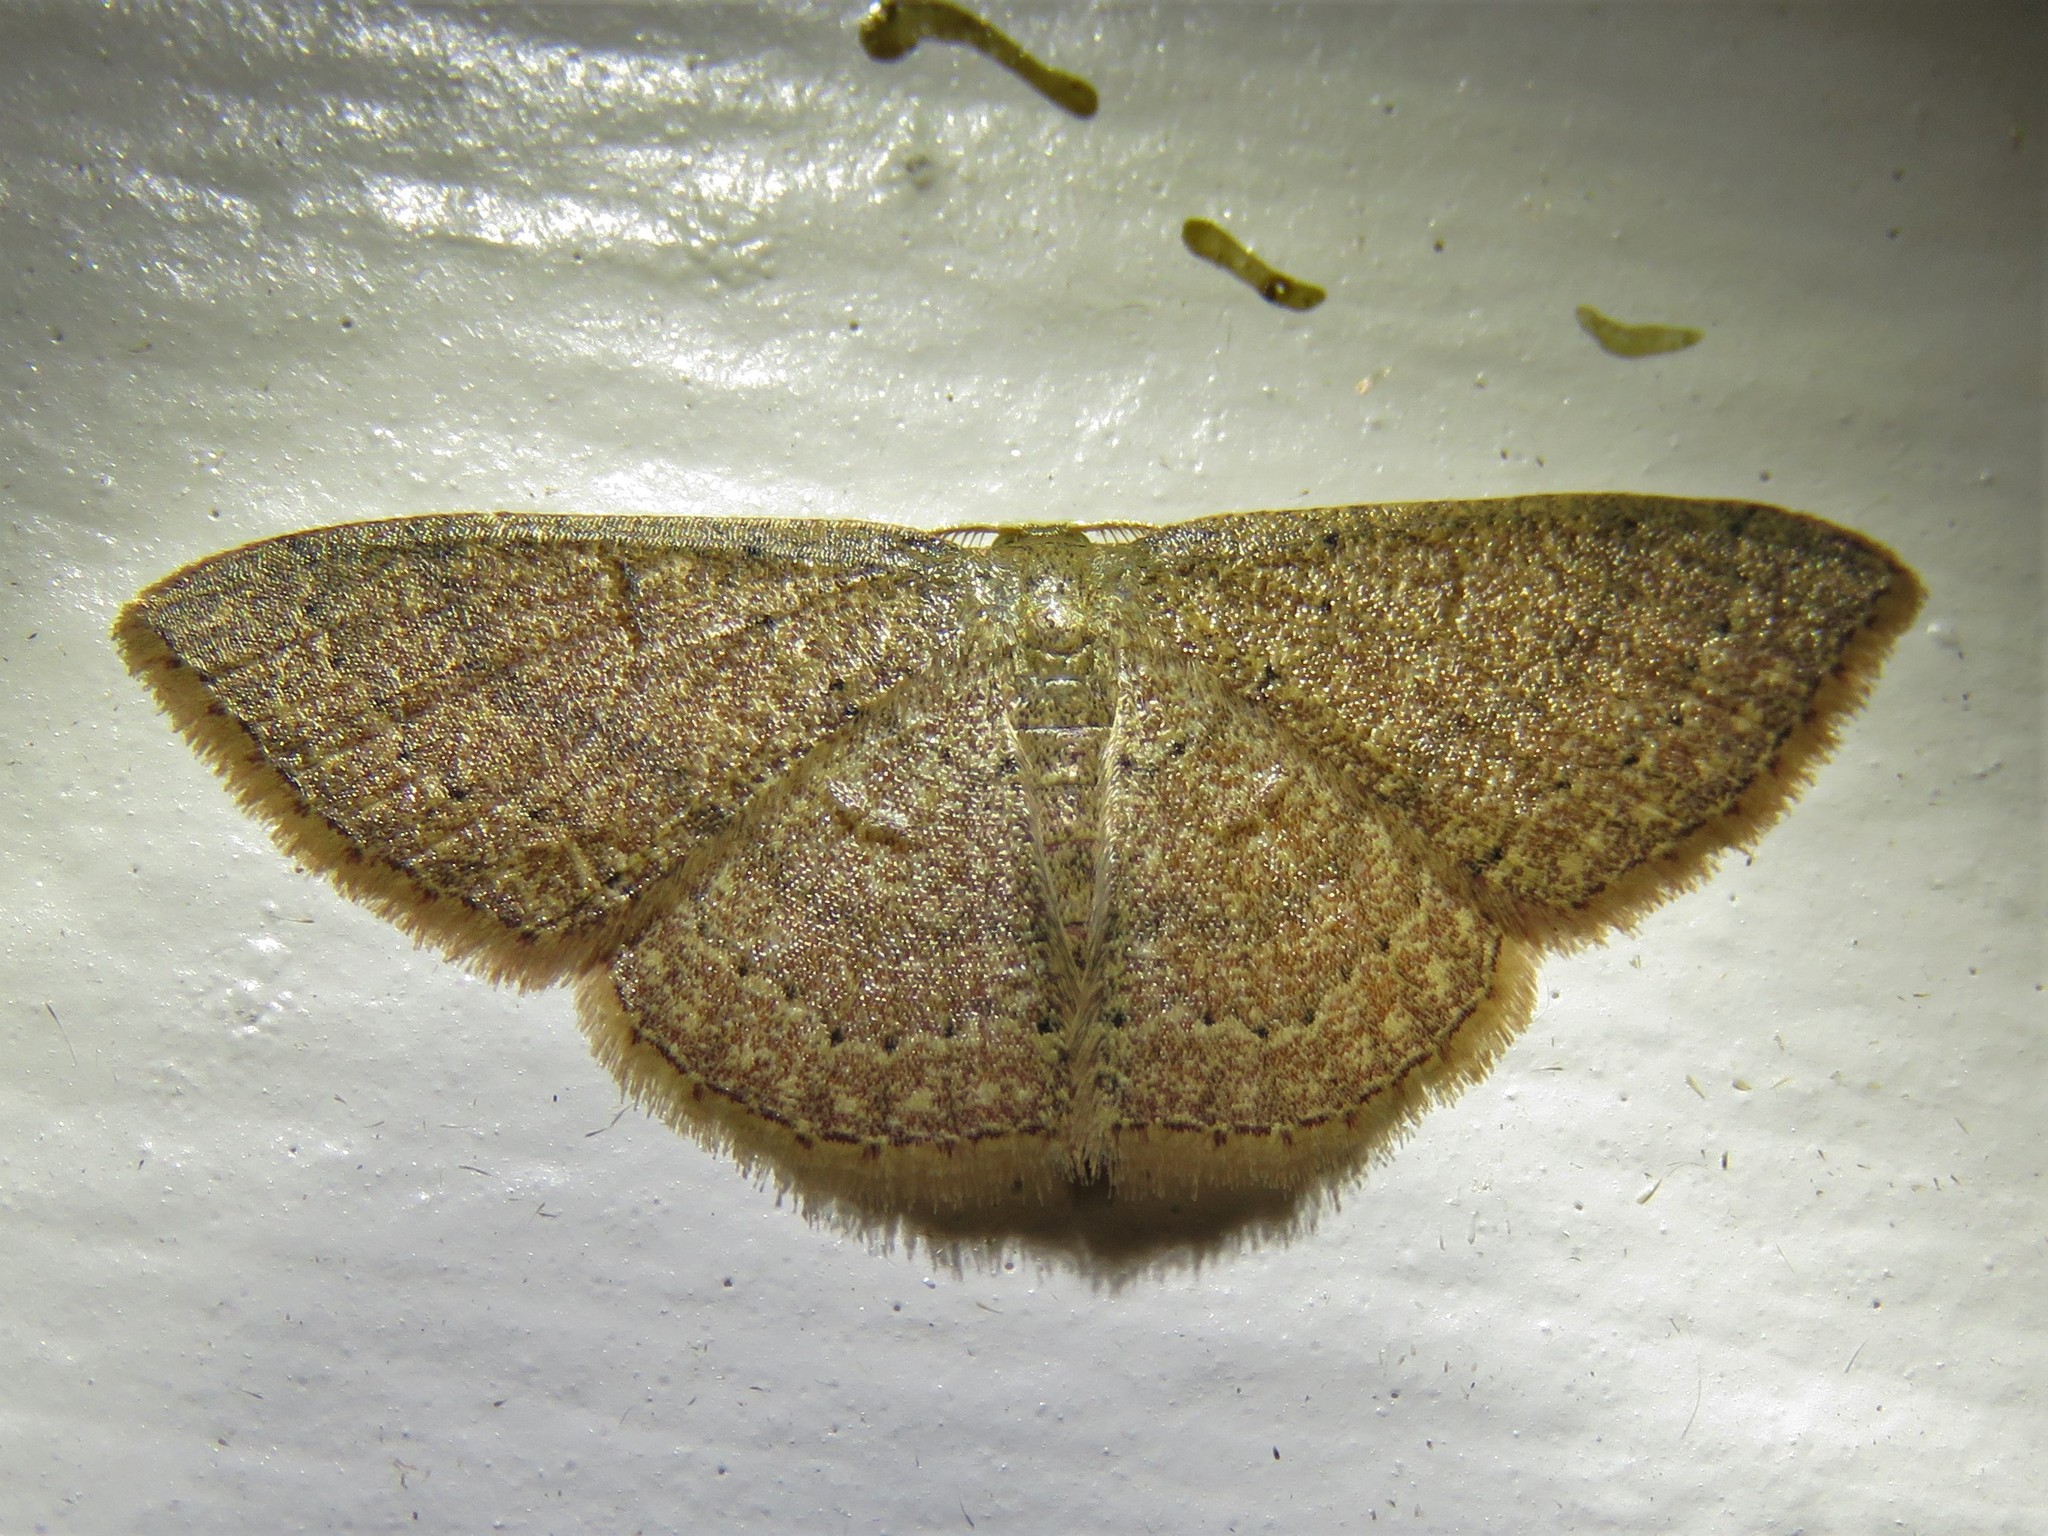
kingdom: Animalia
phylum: Arthropoda
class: Insecta
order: Lepidoptera
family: Geometridae
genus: Pleuroprucha
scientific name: Pleuroprucha insulsaria
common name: Common tan wave
